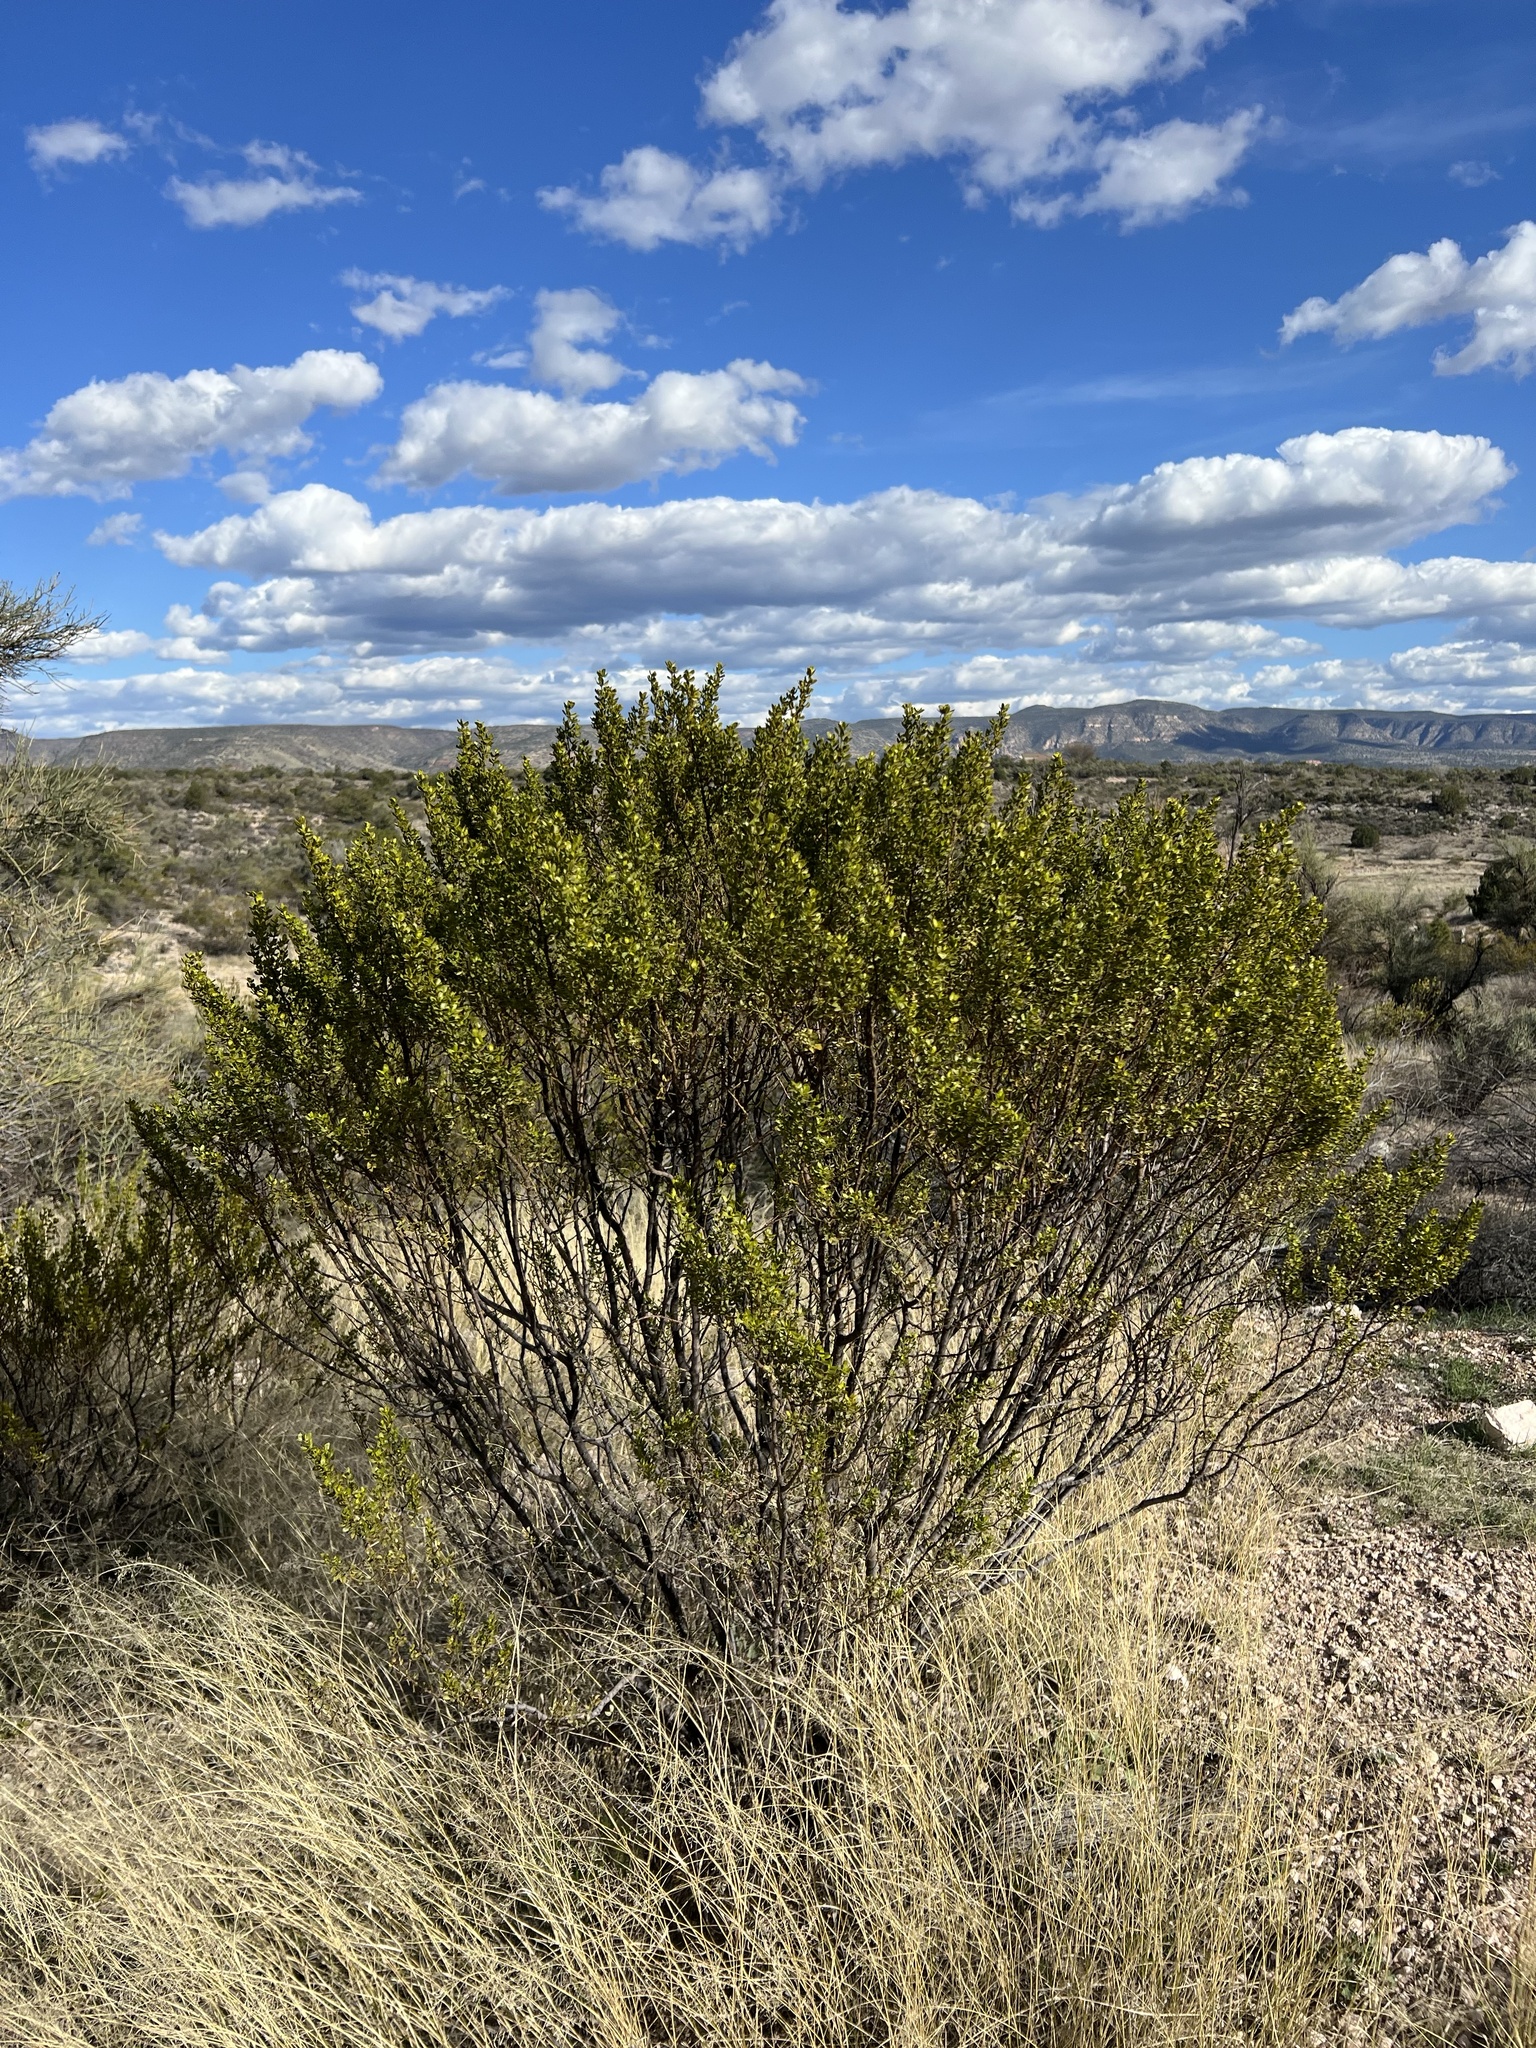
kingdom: Plantae
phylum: Tracheophyta
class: Magnoliopsida
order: Zygophyllales
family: Zygophyllaceae
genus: Larrea
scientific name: Larrea tridentata
